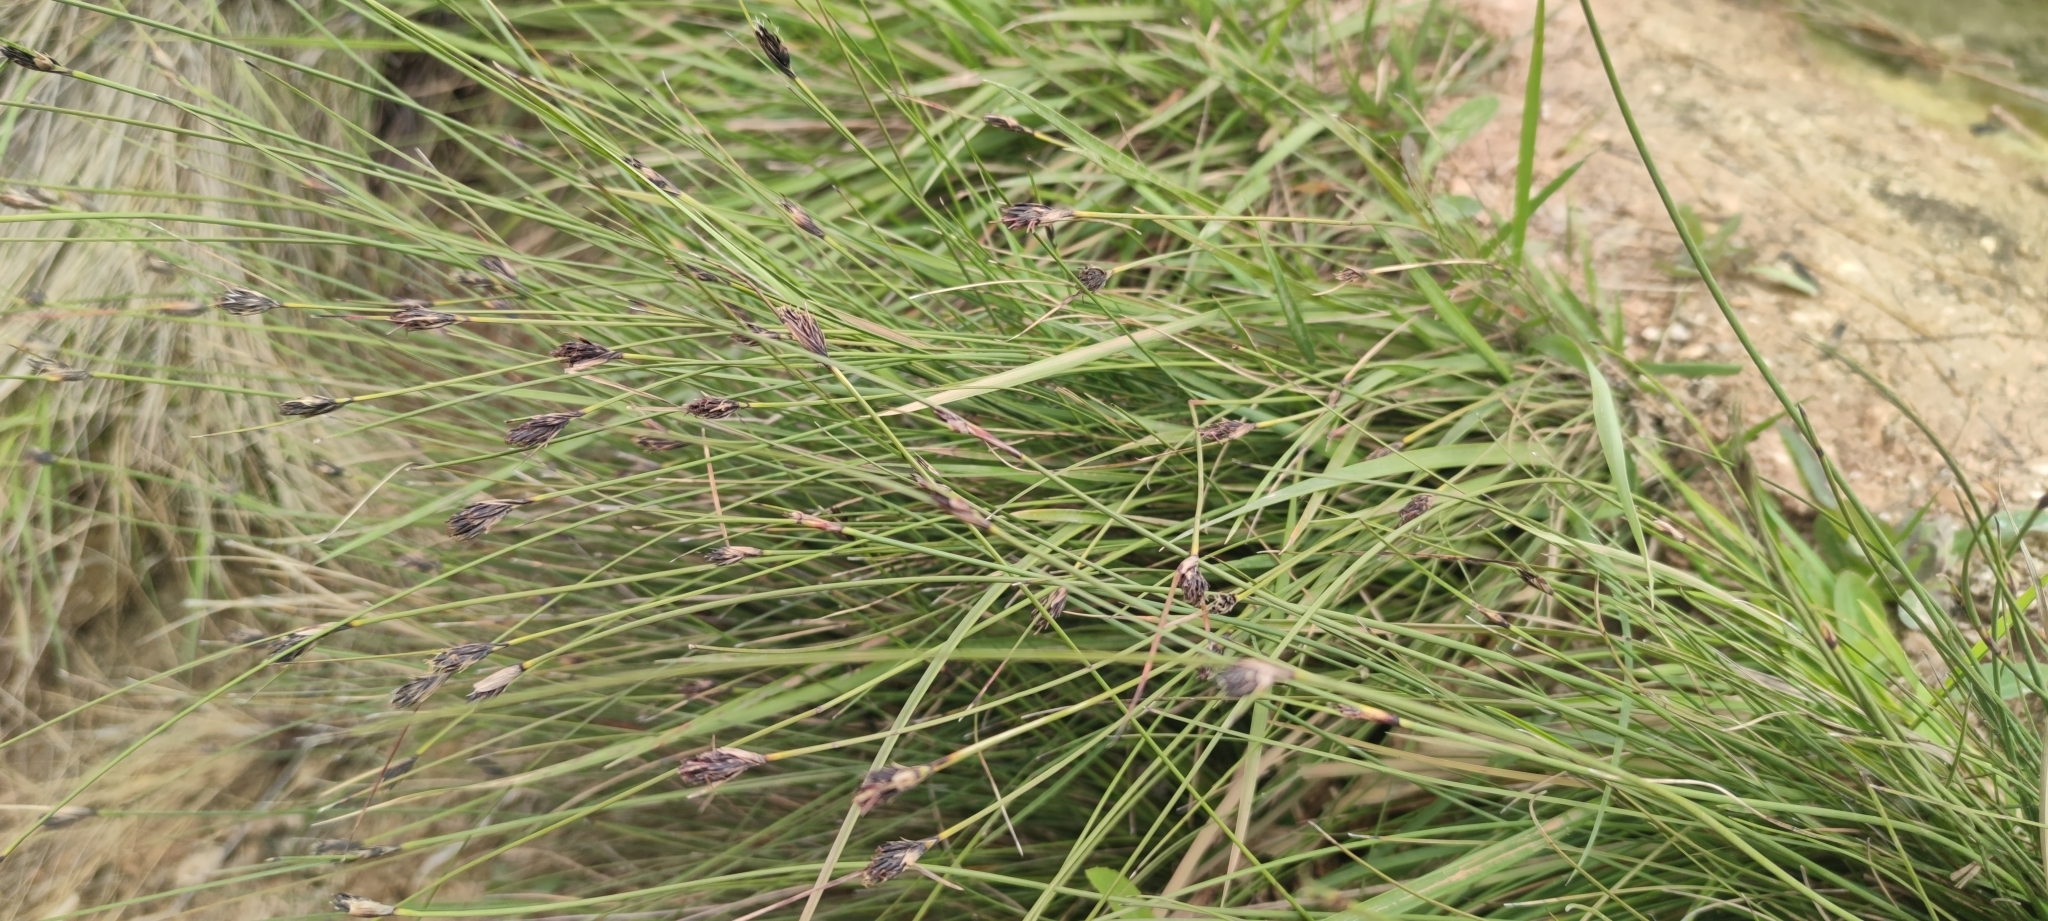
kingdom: Plantae
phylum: Tracheophyta
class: Liliopsida
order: Poales
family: Cyperaceae
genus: Schoenus
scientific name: Schoenus nigricans
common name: Black bog-rush
